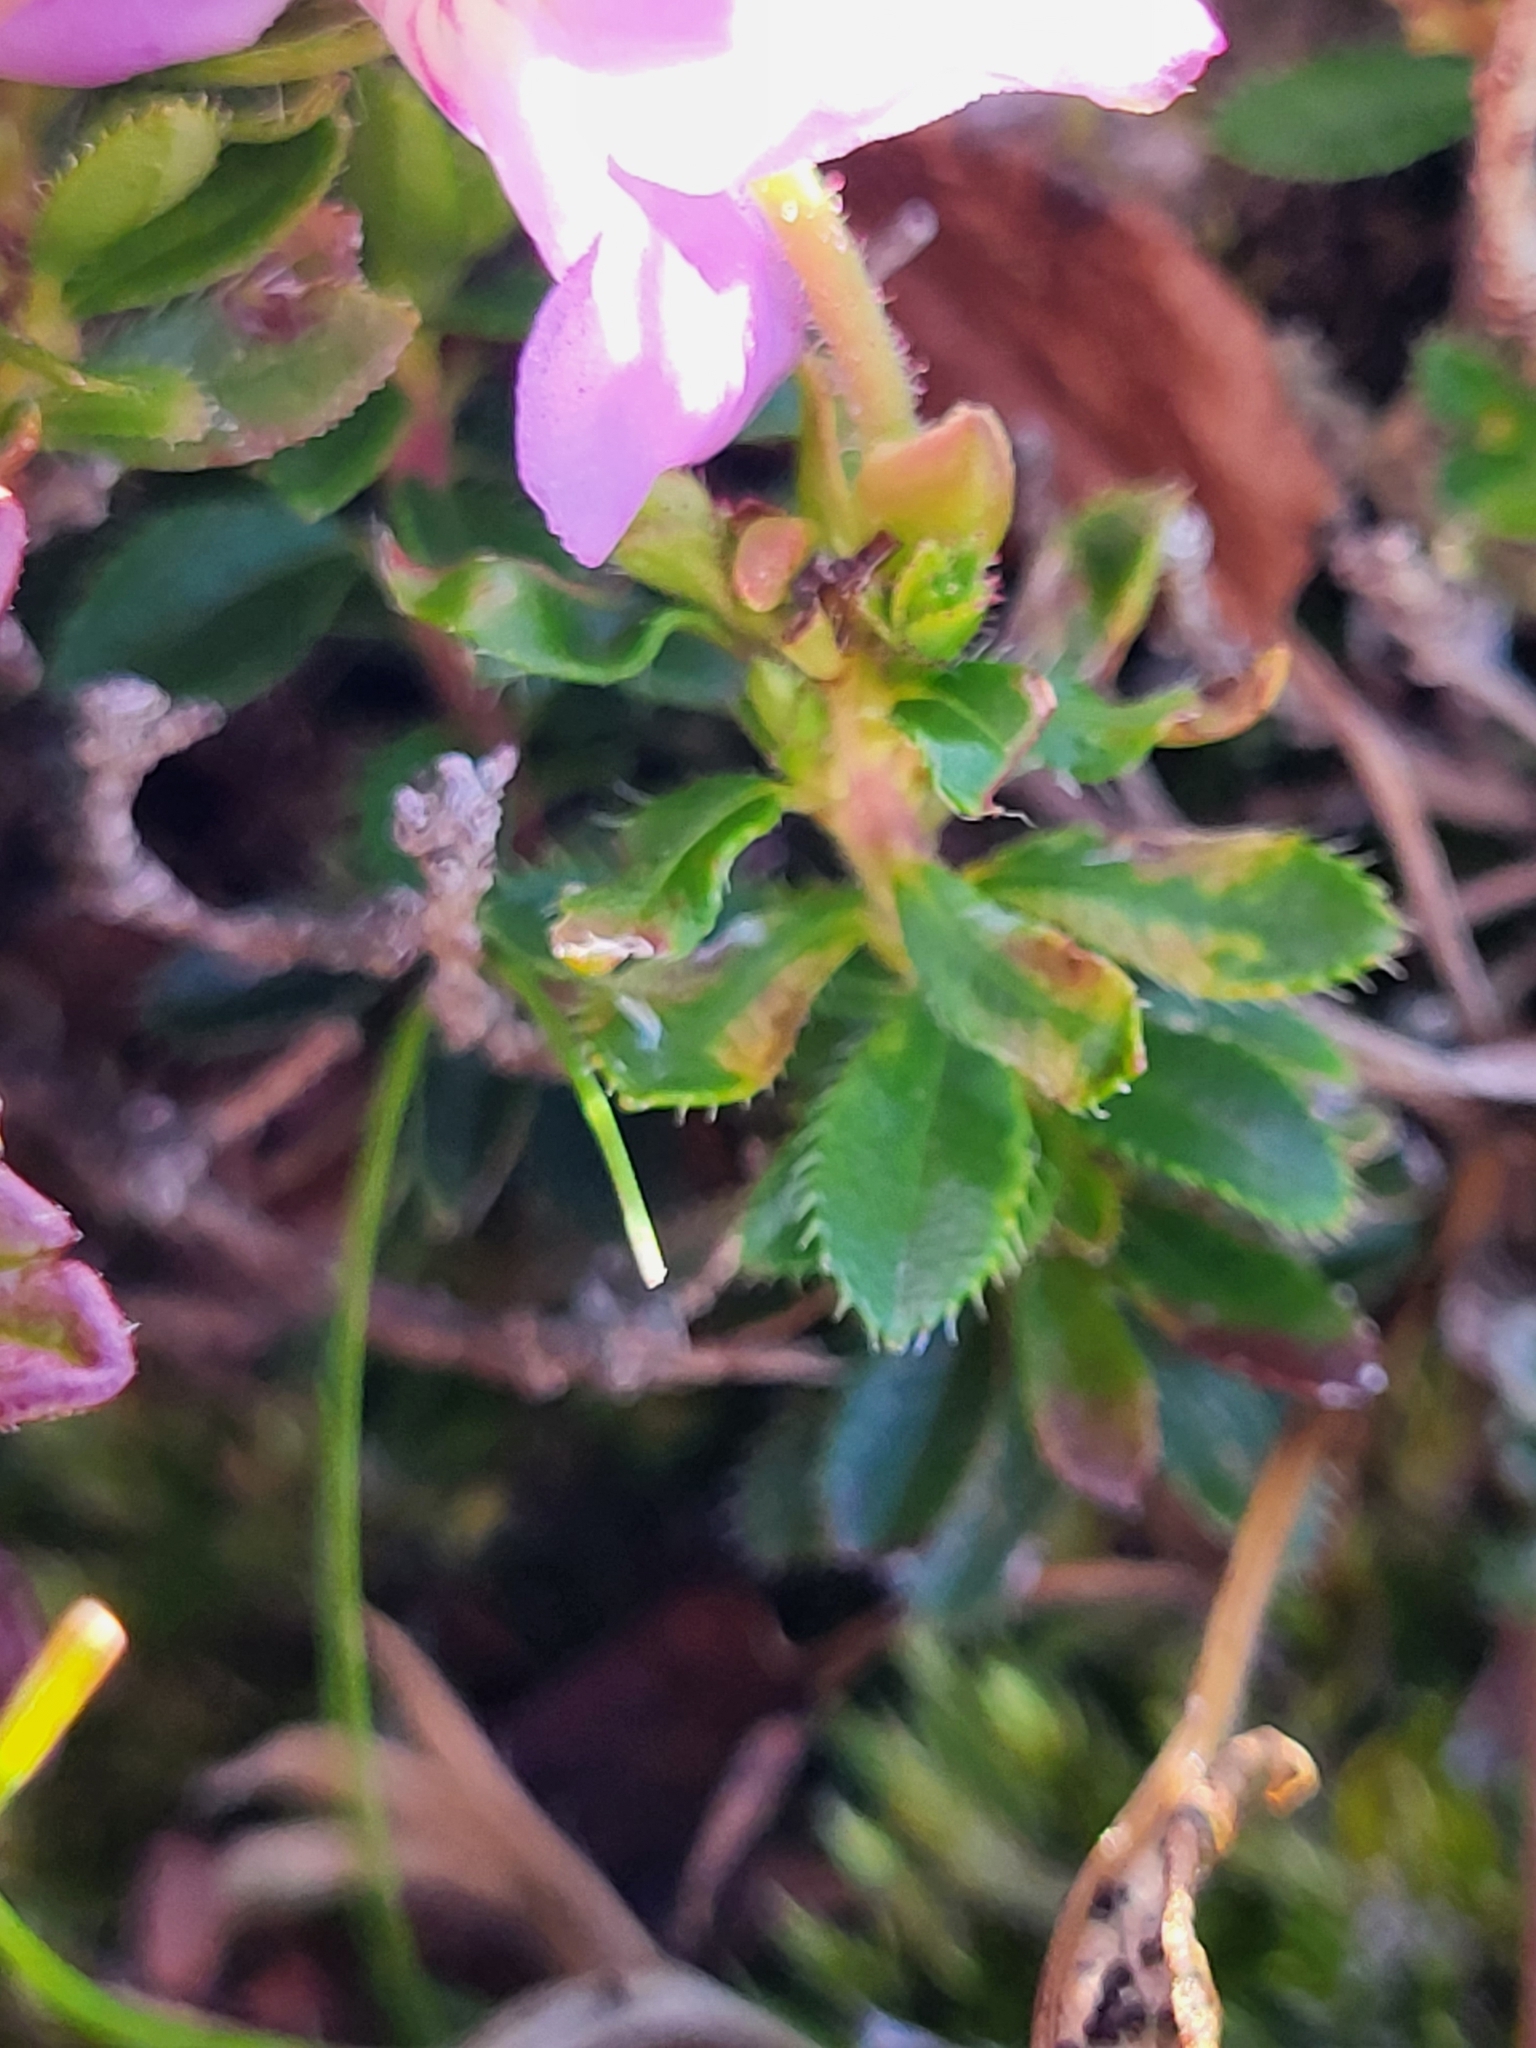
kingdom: Plantae
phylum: Tracheophyta
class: Magnoliopsida
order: Ericales
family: Ericaceae
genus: Rhodothamnus
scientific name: Rhodothamnus chamaecistus
